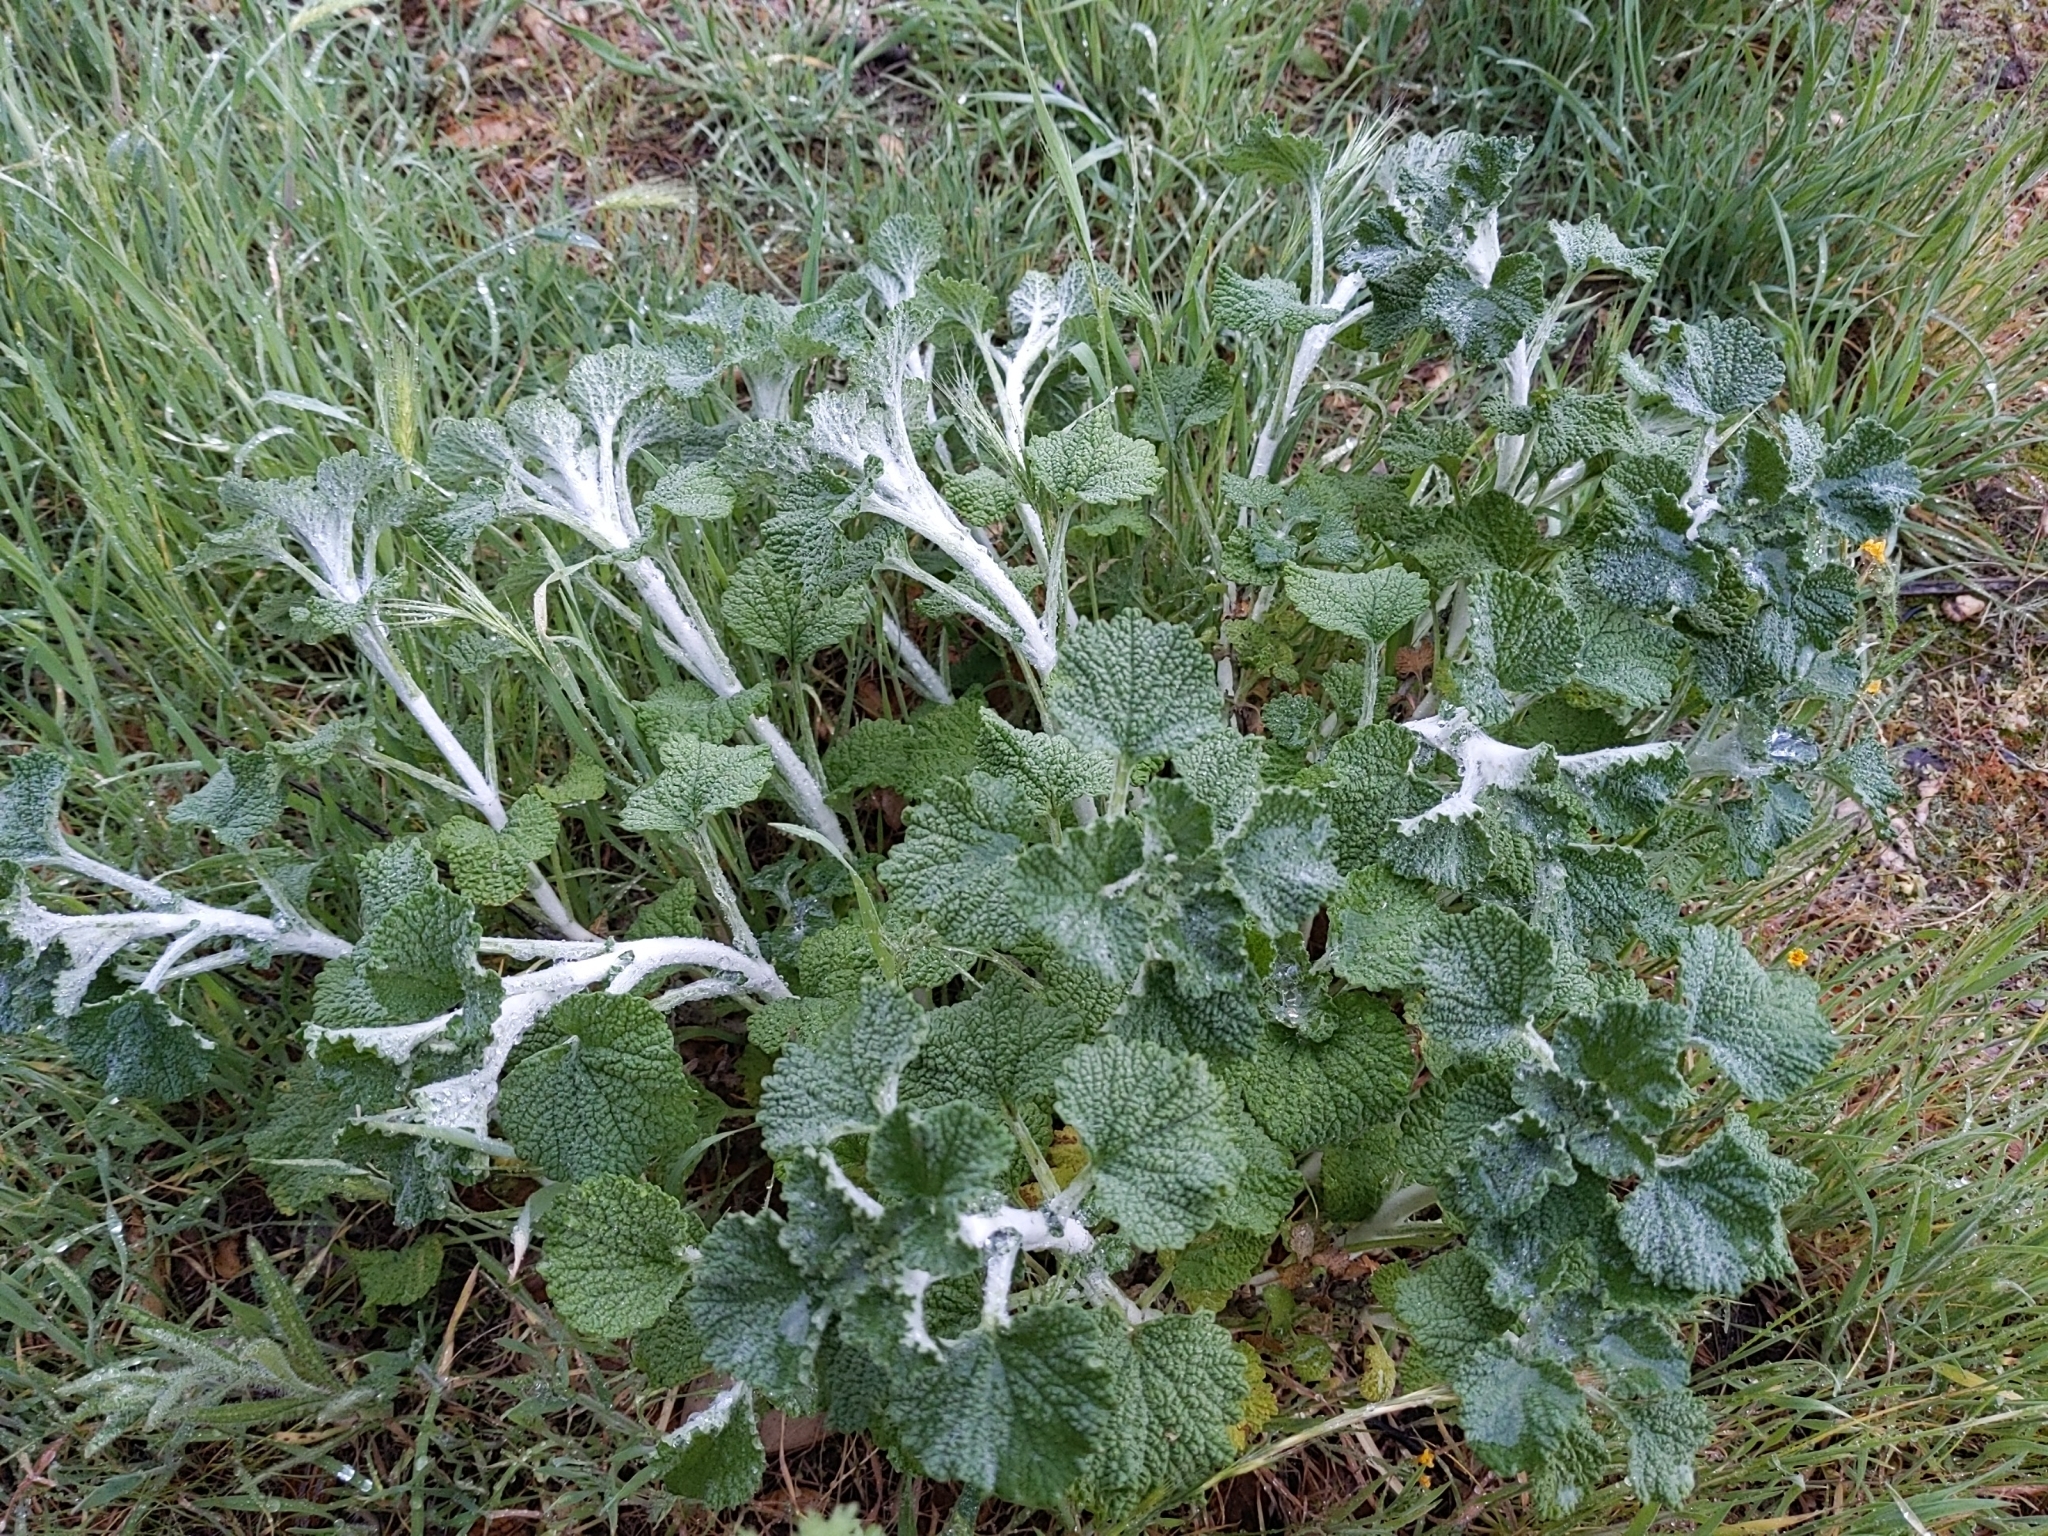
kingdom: Plantae
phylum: Tracheophyta
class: Magnoliopsida
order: Lamiales
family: Lamiaceae
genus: Marrubium
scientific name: Marrubium vulgare
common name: Horehound
